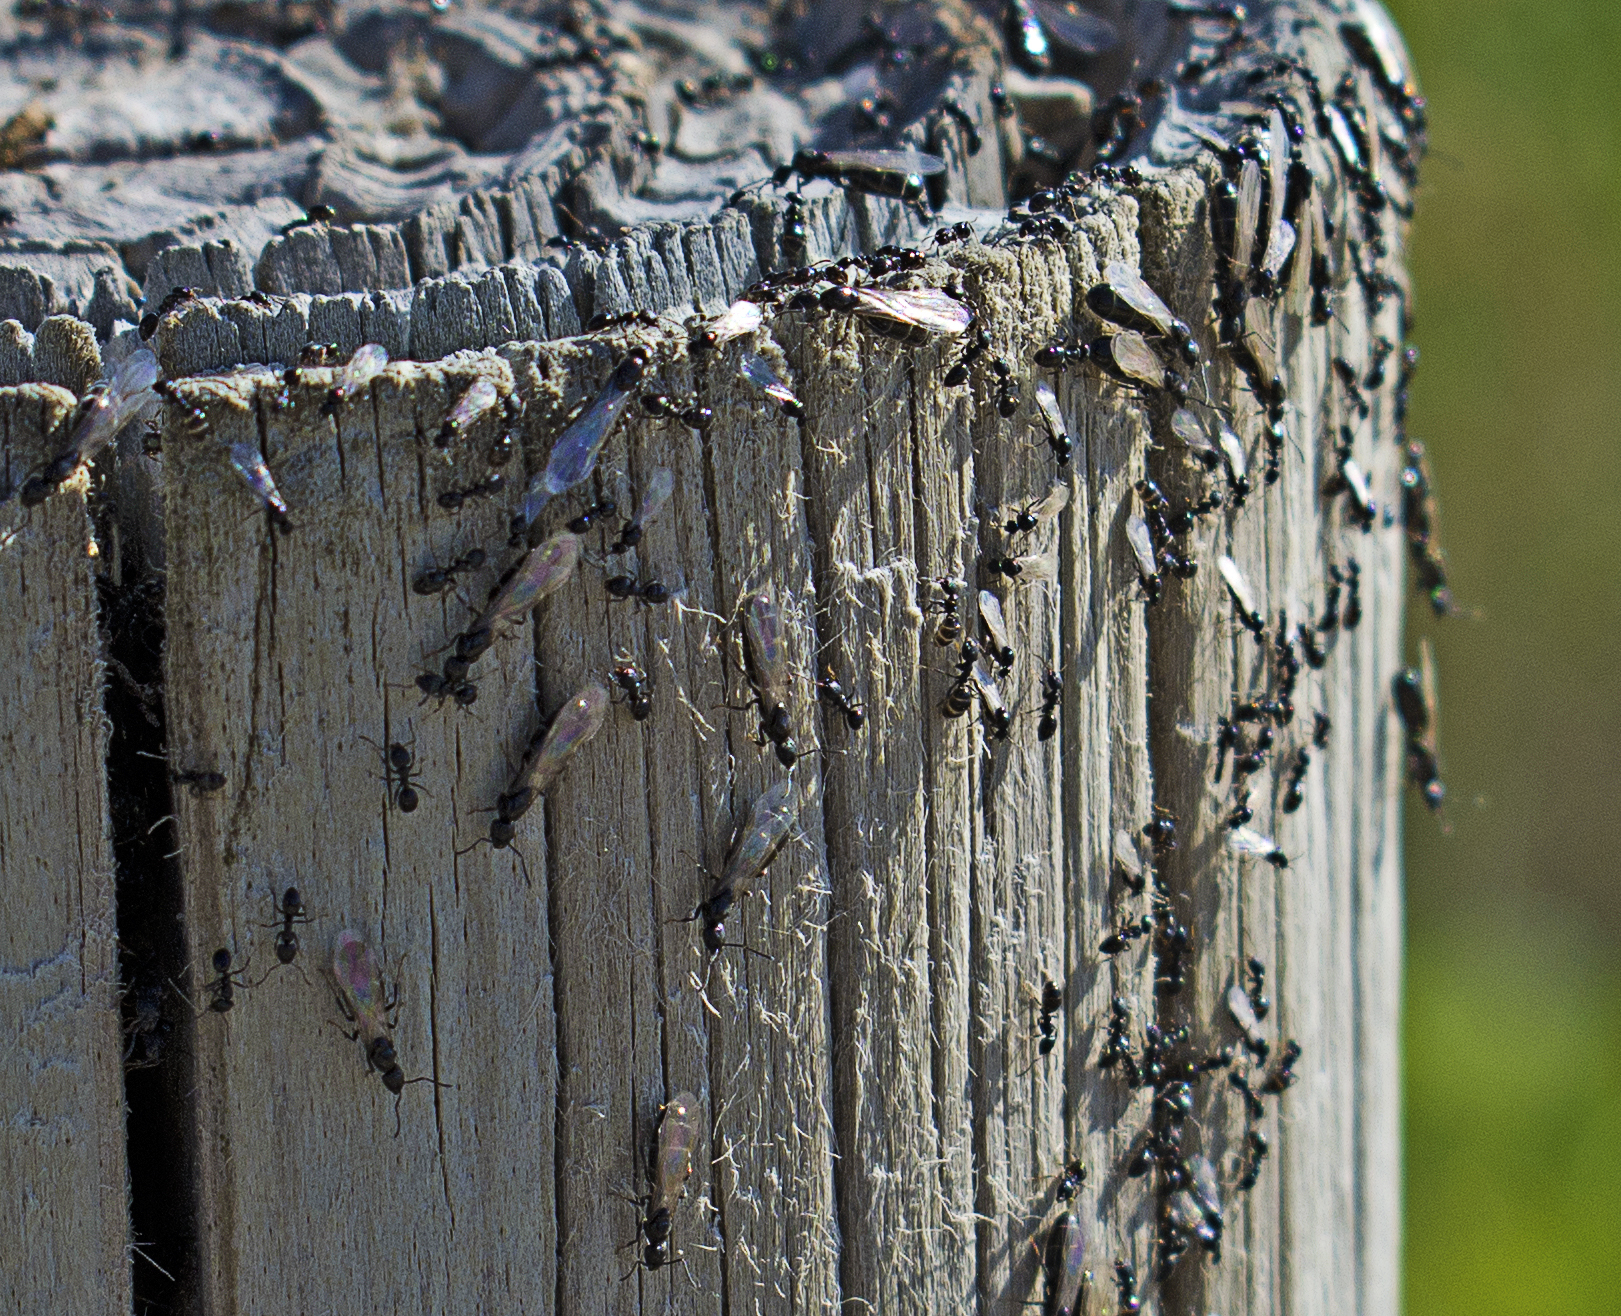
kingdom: Animalia
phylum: Arthropoda
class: Insecta
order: Hymenoptera
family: Formicidae
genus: Ochetellus
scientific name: Ochetellus glaber
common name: Ant
